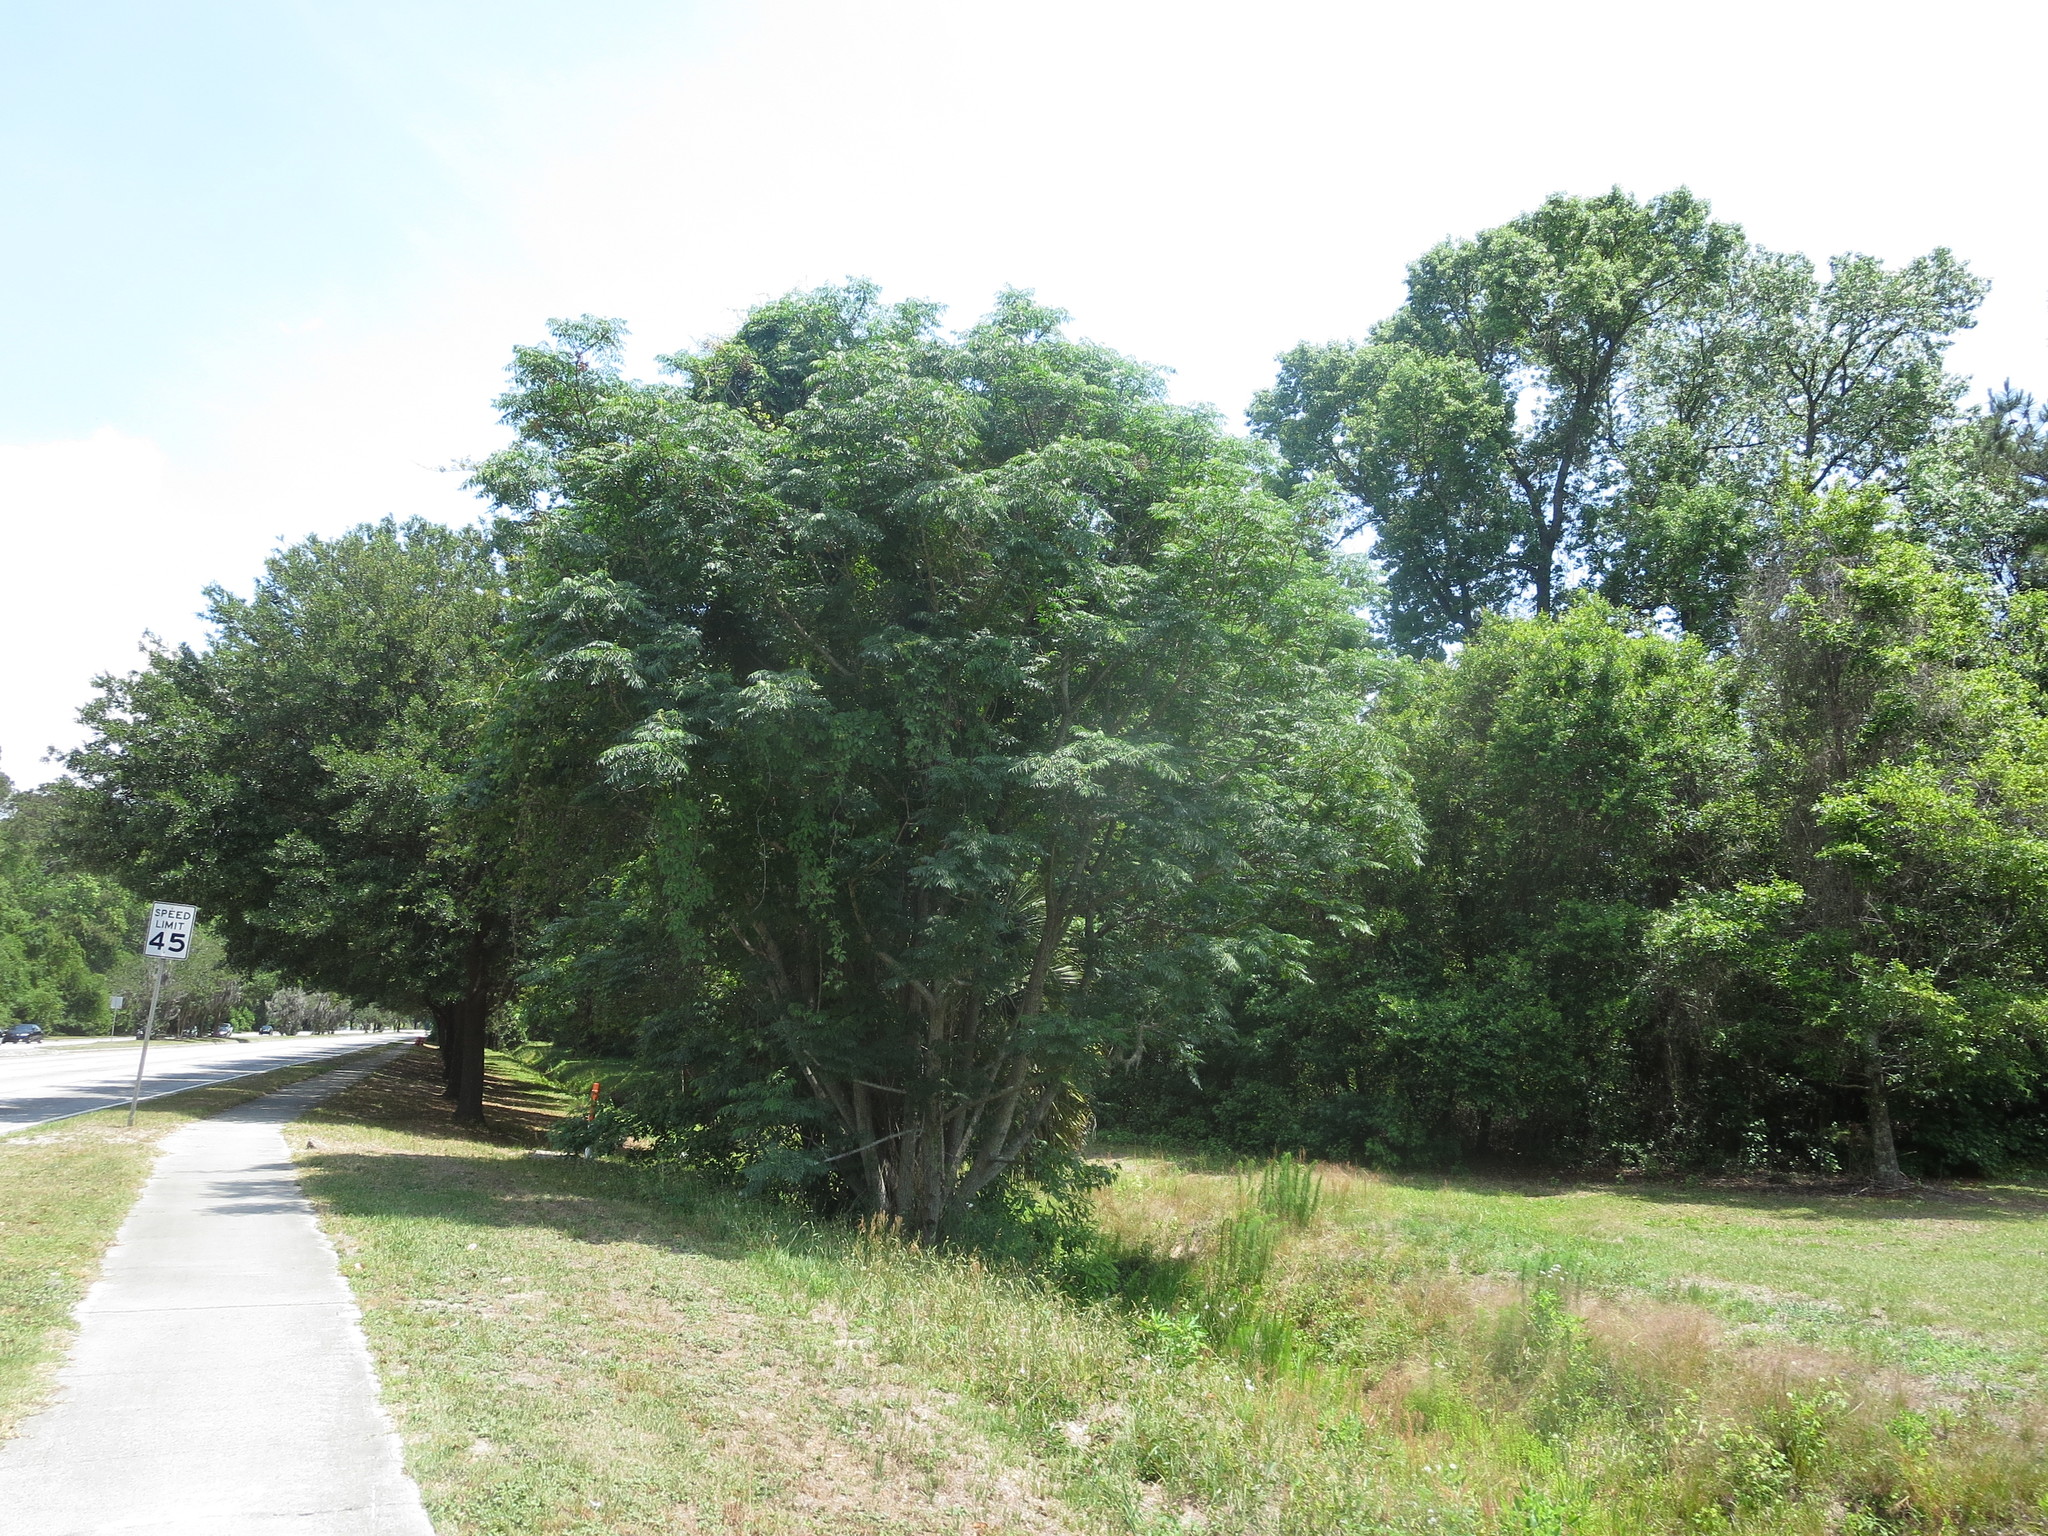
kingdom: Plantae
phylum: Tracheophyta
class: Magnoliopsida
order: Sapindales
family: Meliaceae
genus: Melia
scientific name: Melia azedarach
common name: Chinaberrytree
